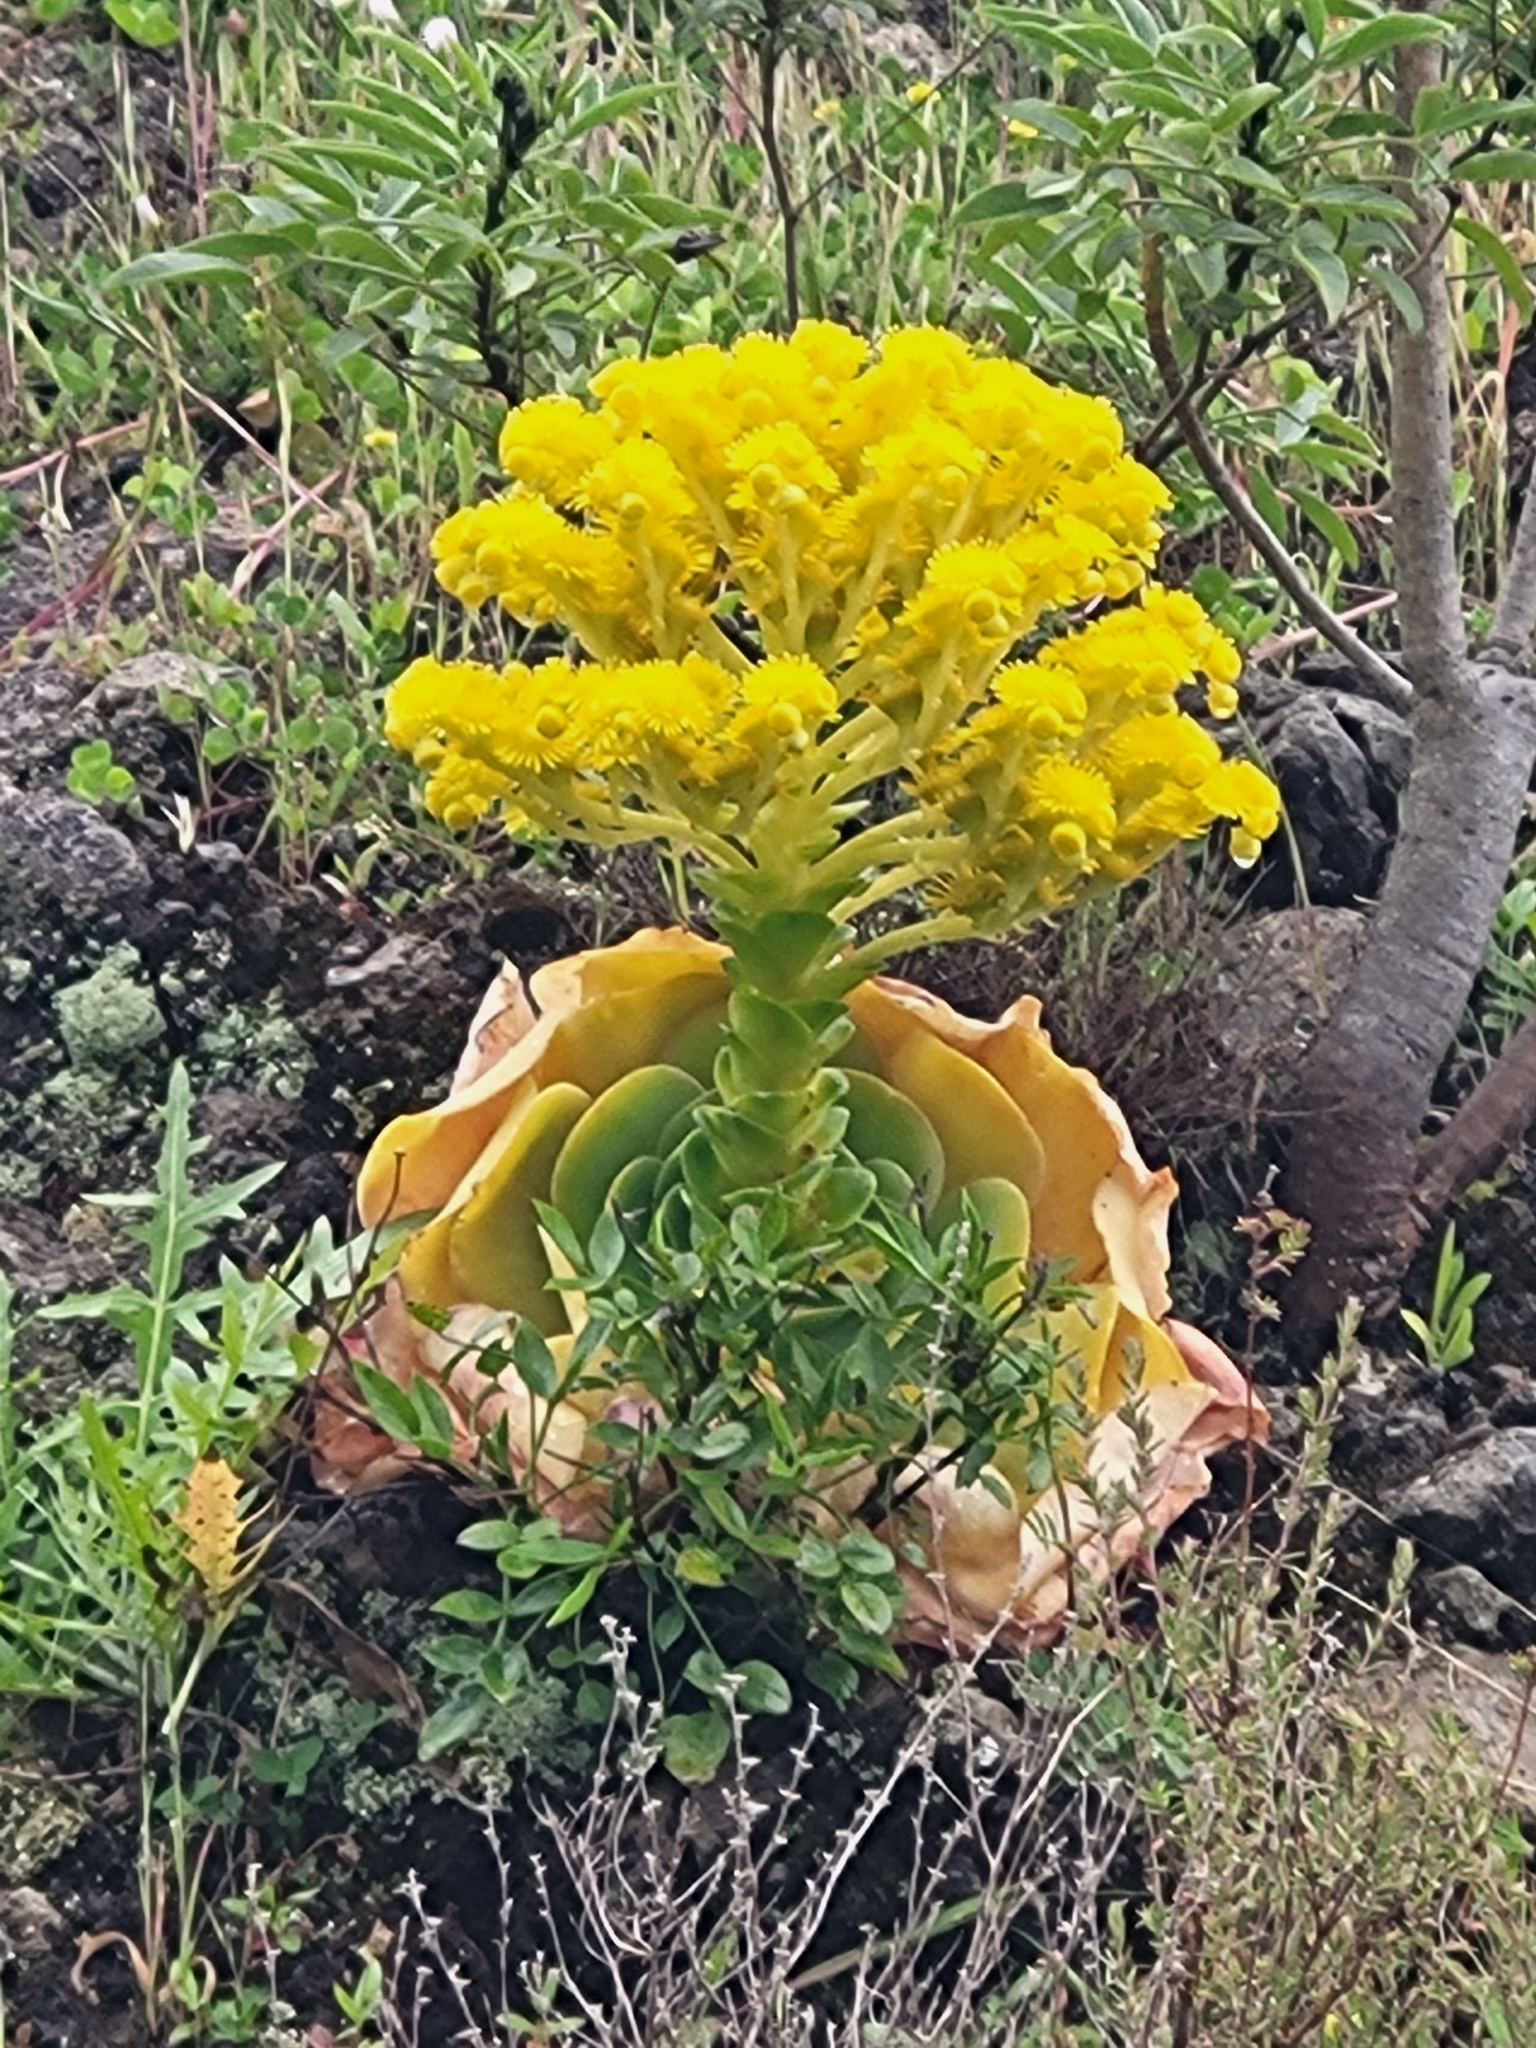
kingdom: Plantae
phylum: Tracheophyta
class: Magnoliopsida
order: Saxifragales
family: Crassulaceae
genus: Aeonium
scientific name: Aeonium diplocyclum
